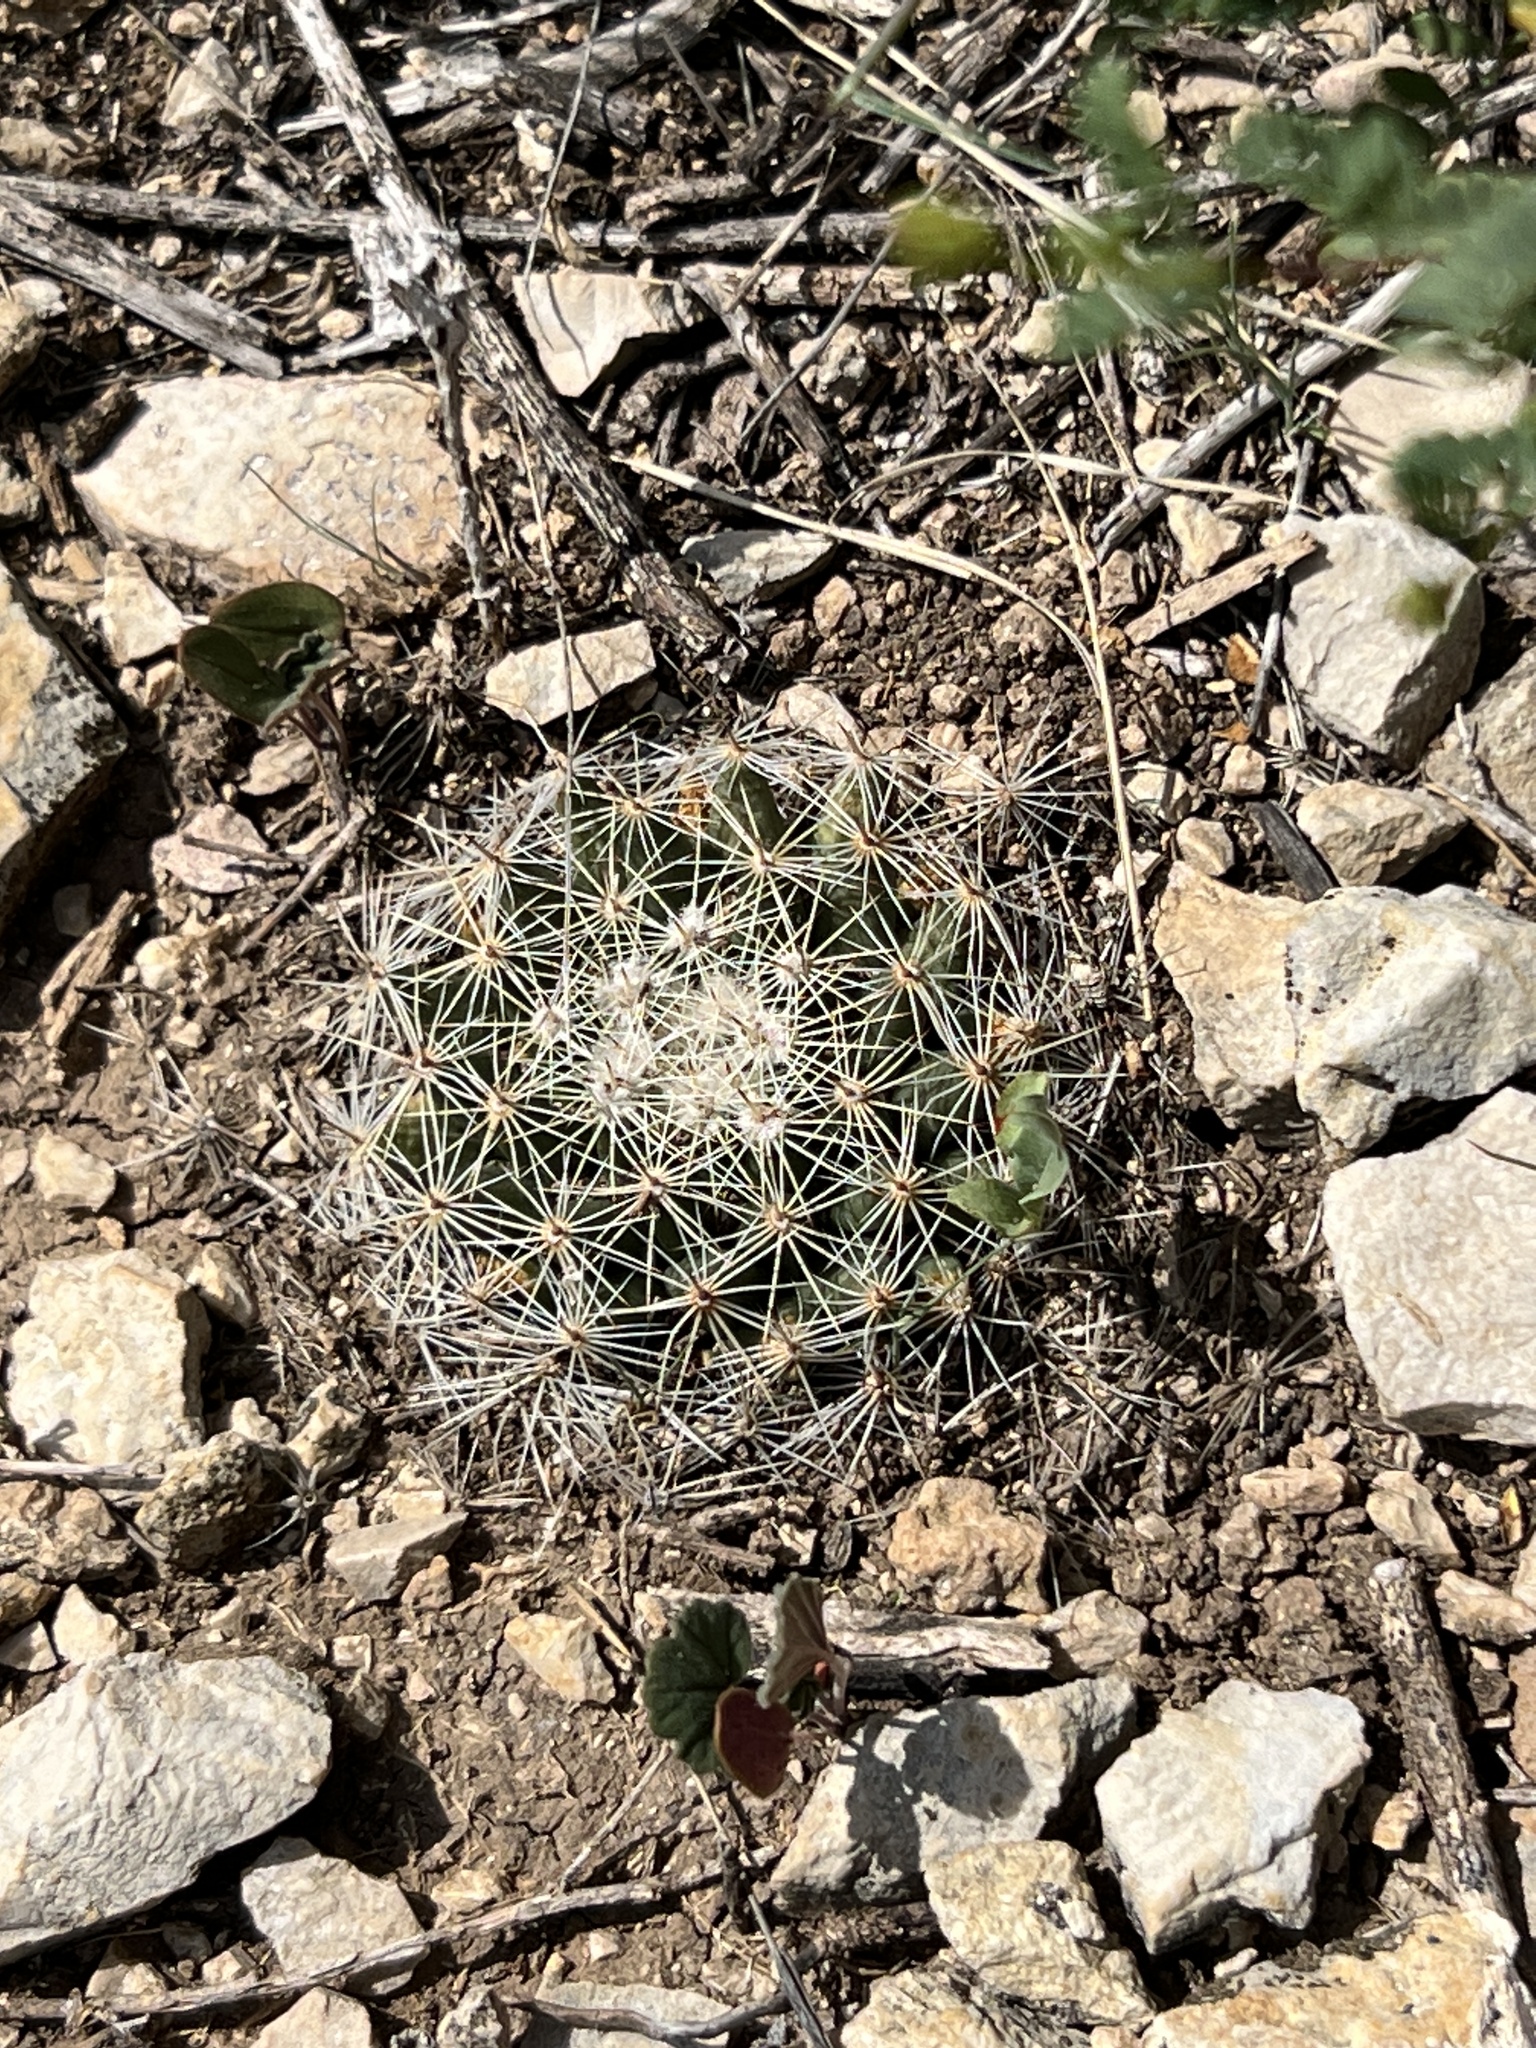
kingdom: Plantae
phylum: Tracheophyta
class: Magnoliopsida
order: Caryophyllales
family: Cactaceae
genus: Mammillaria
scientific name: Mammillaria heyderi
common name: Little nipple cactus
